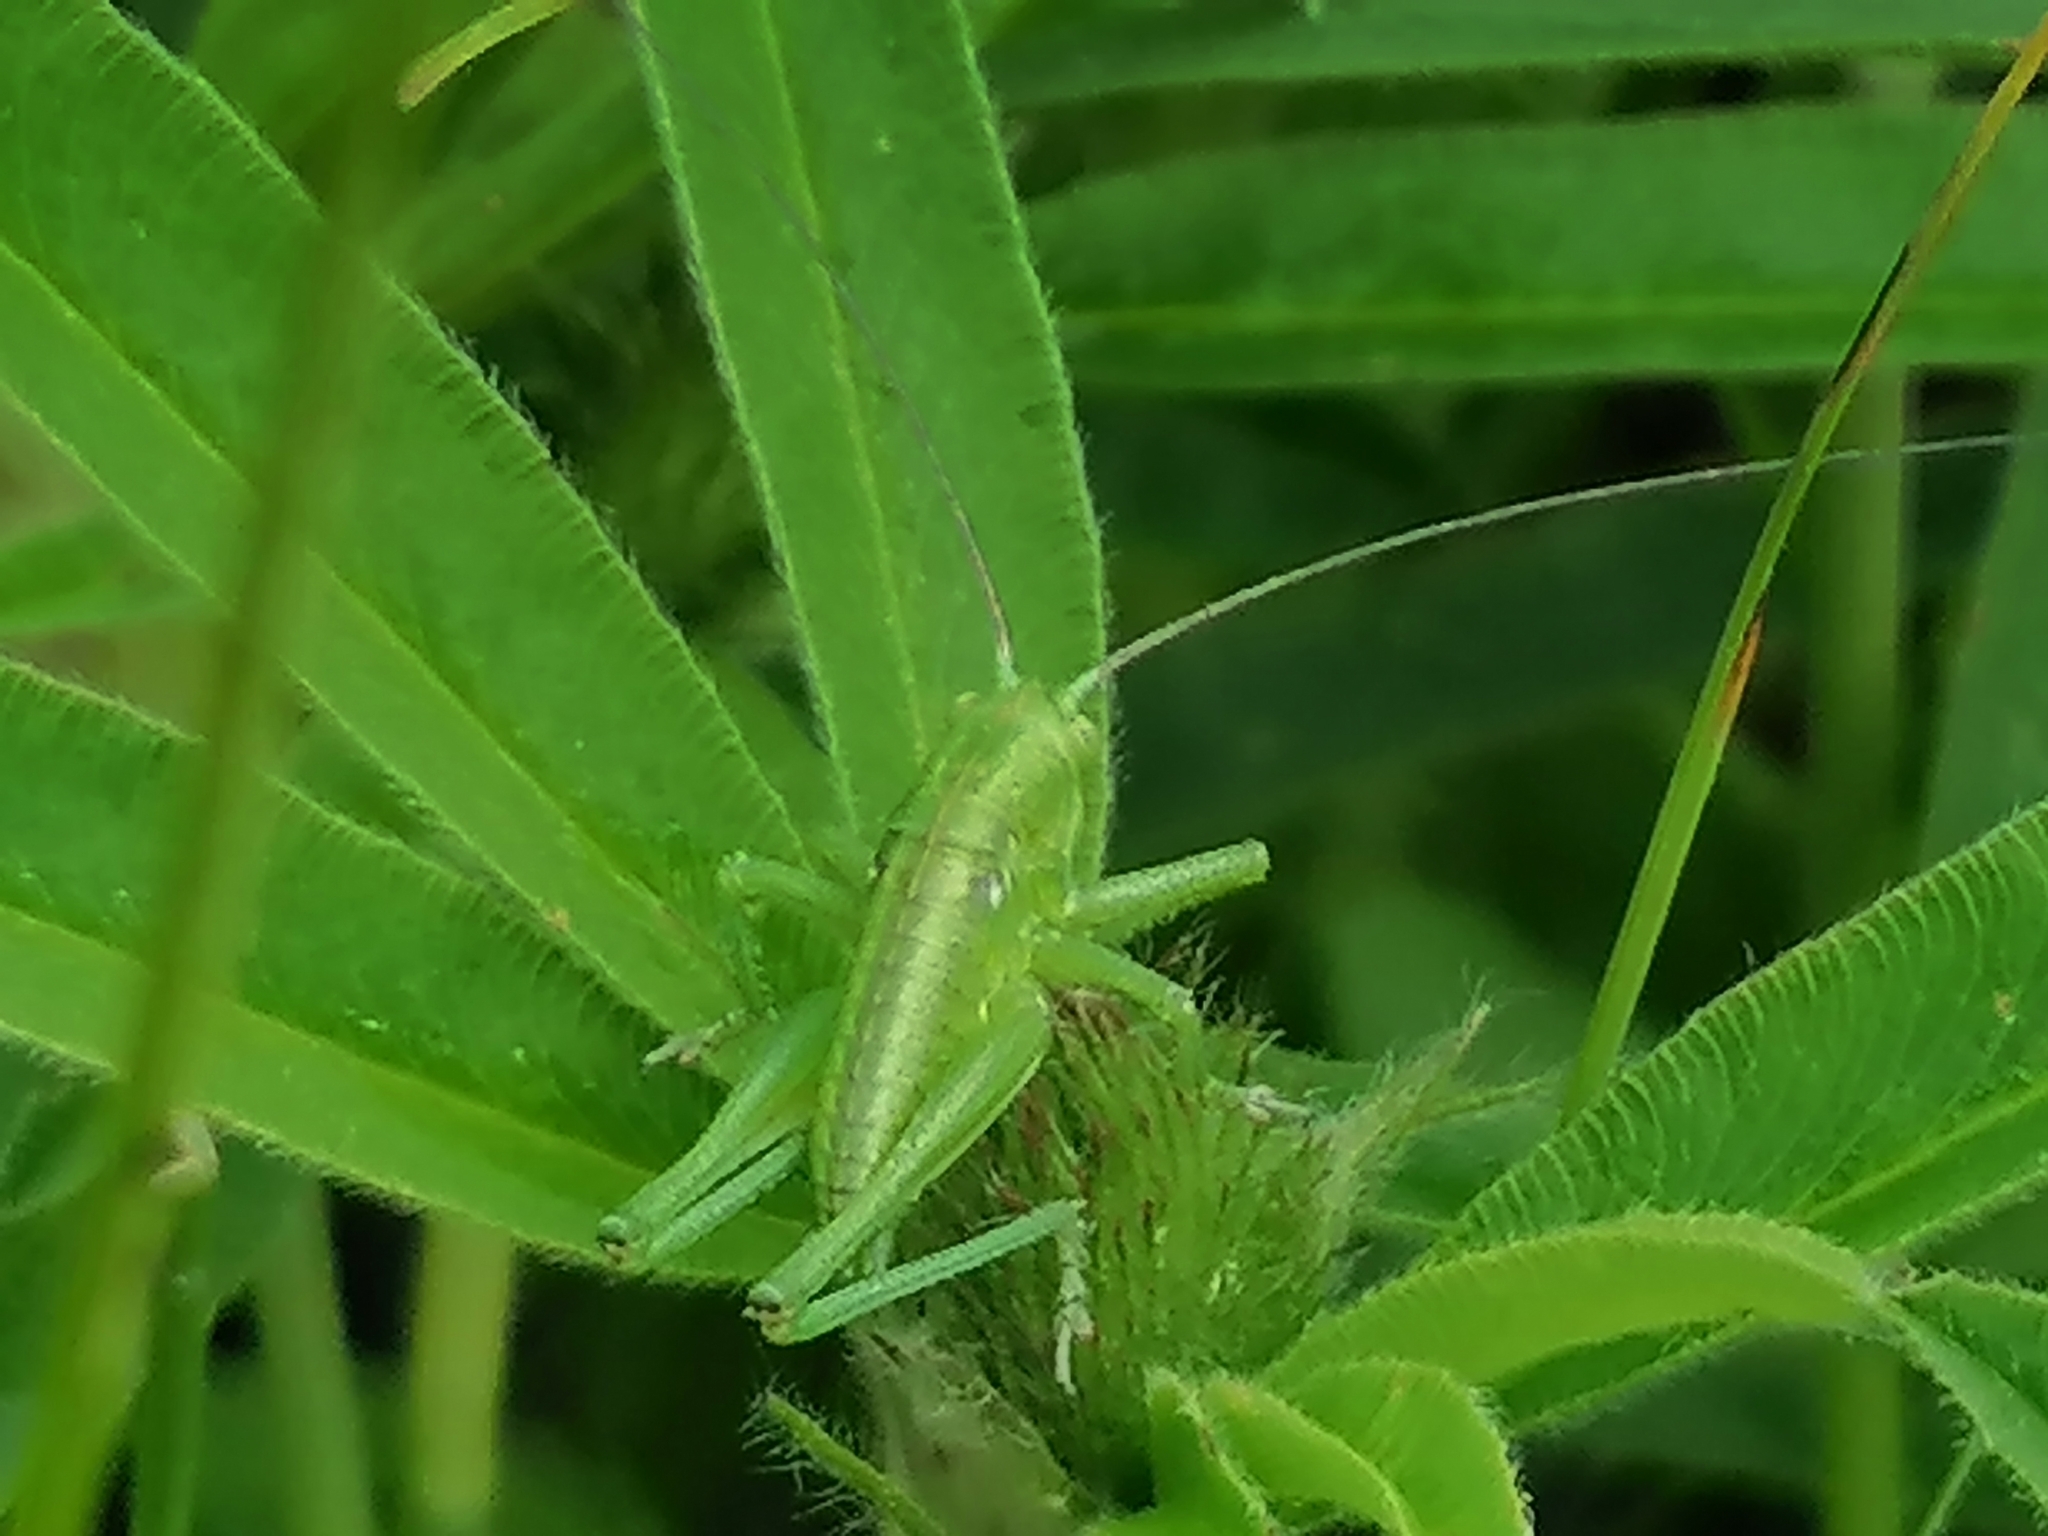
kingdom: Animalia
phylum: Arthropoda
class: Insecta
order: Orthoptera
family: Tettigoniidae
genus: Tettigonia
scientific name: Tettigonia viridissima
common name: Great green bush-cricket
